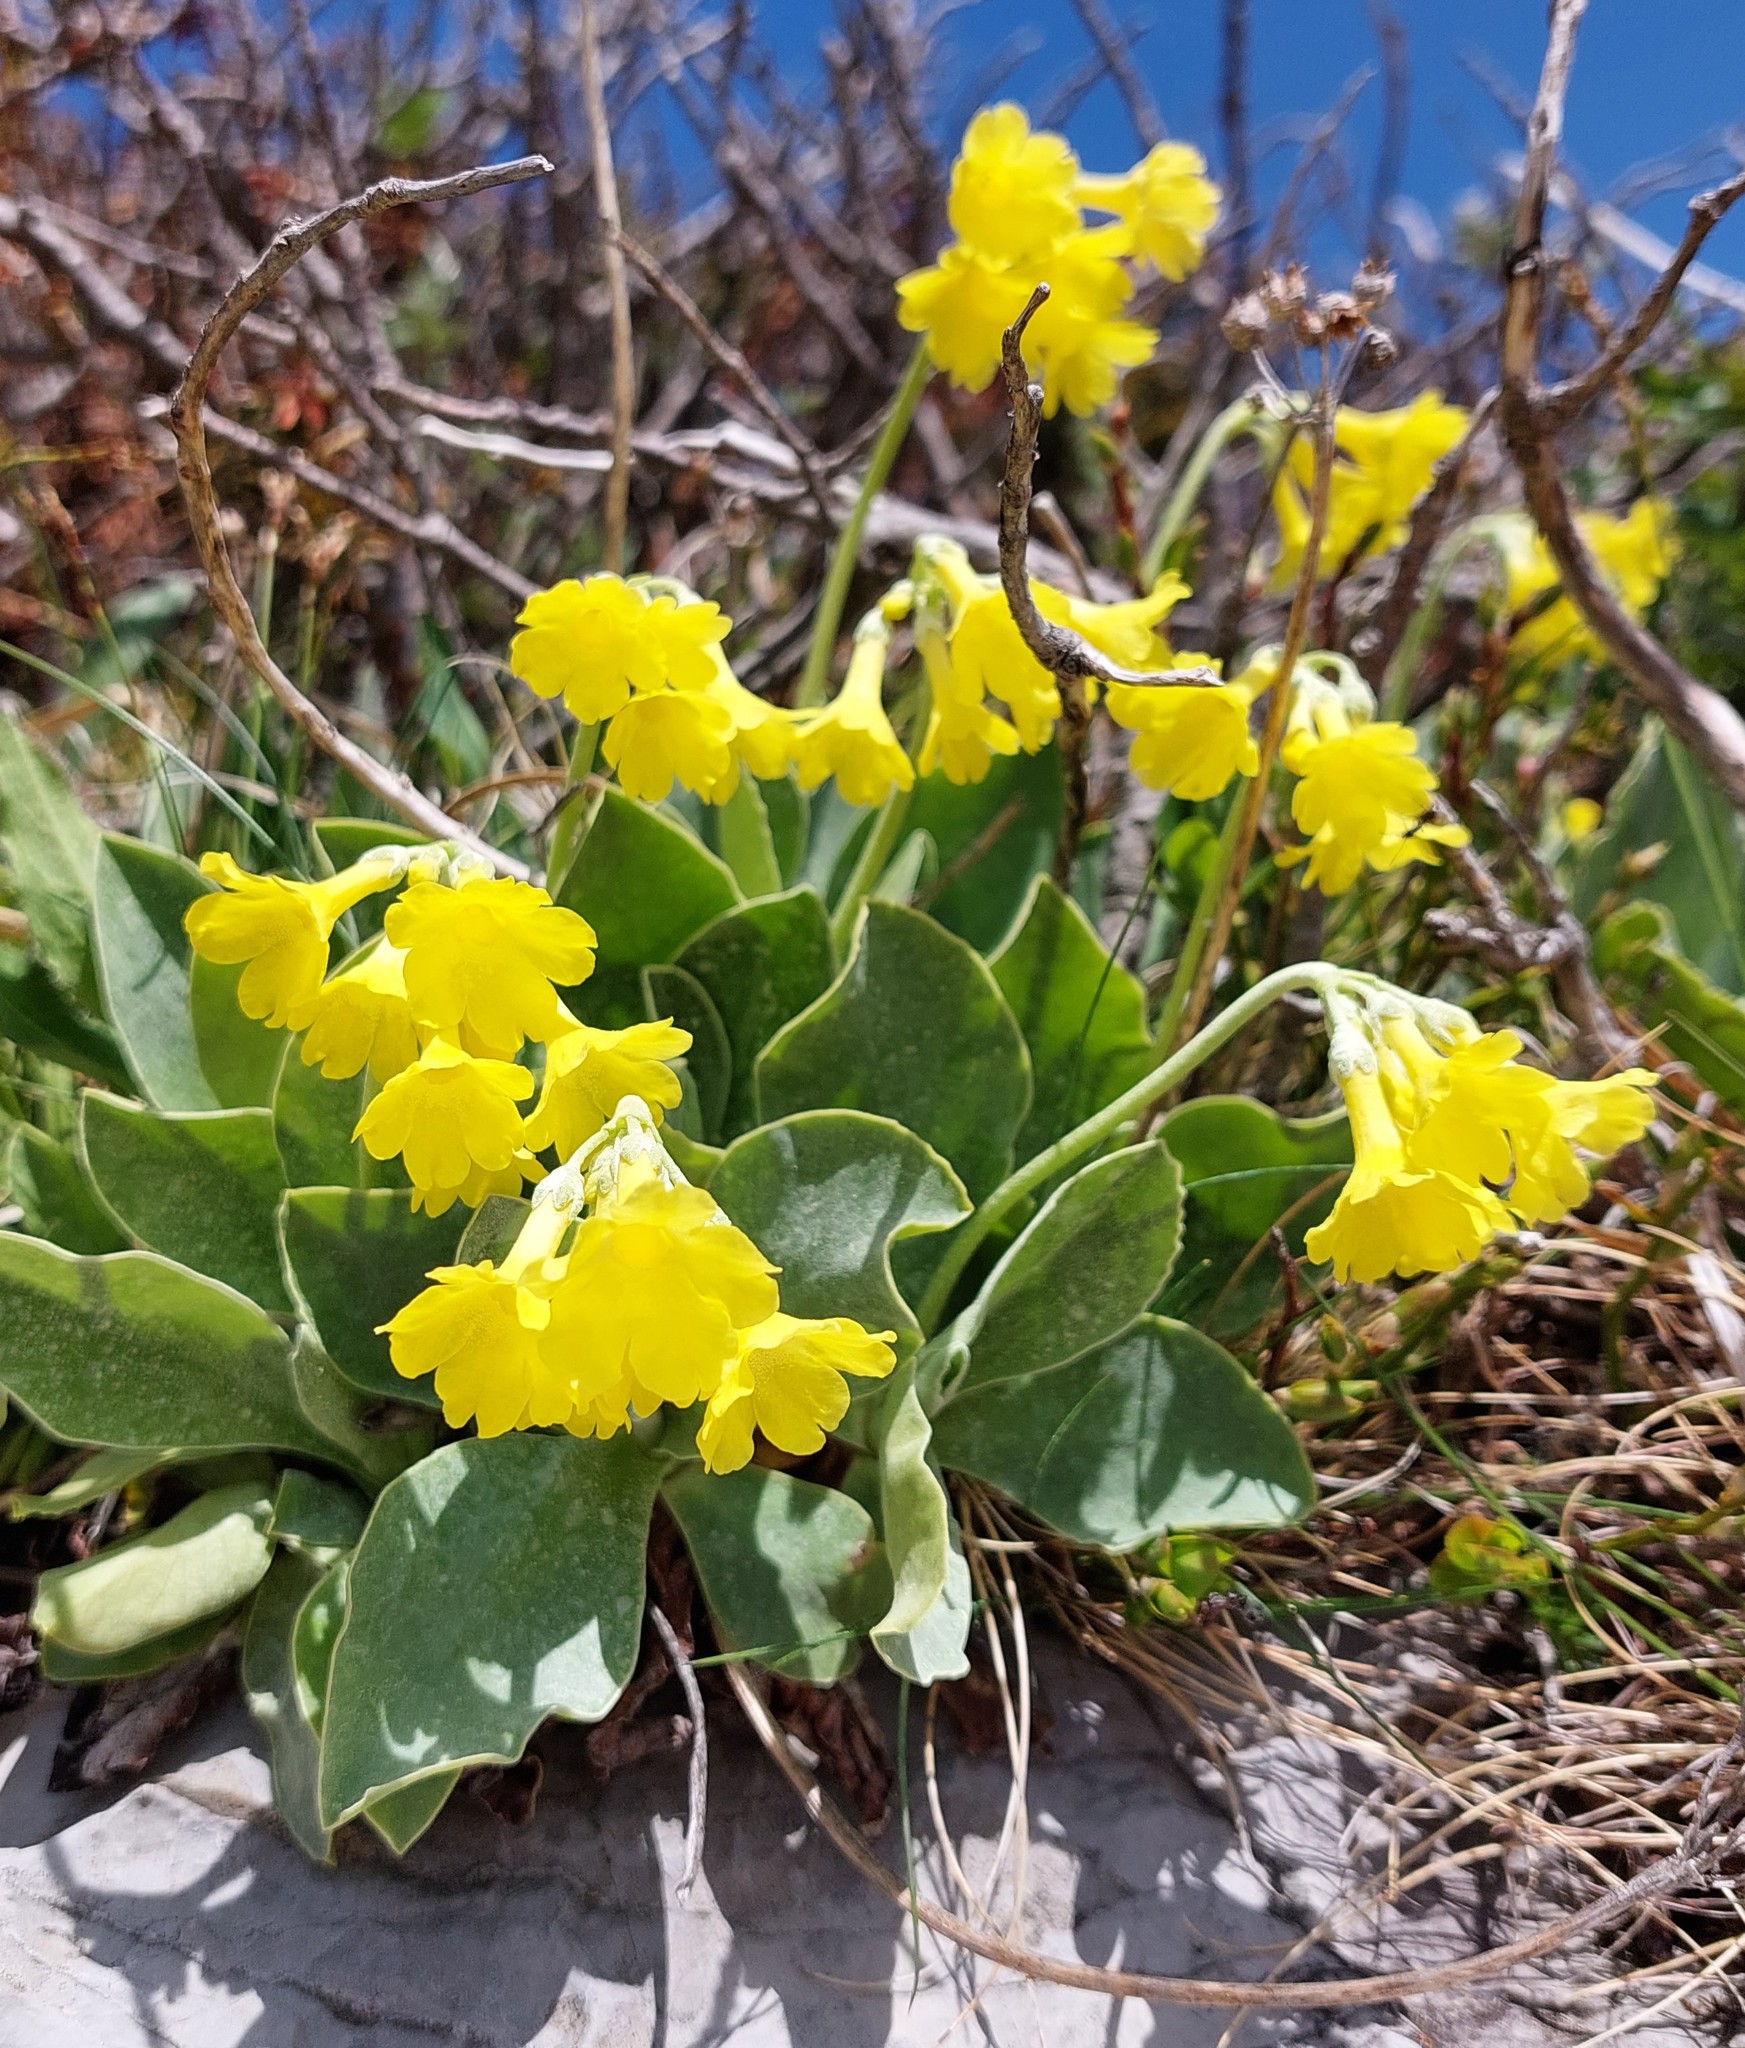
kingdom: Plantae
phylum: Tracheophyta
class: Magnoliopsida
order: Ericales
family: Primulaceae
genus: Primula
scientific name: Primula auricula
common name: Auricula
